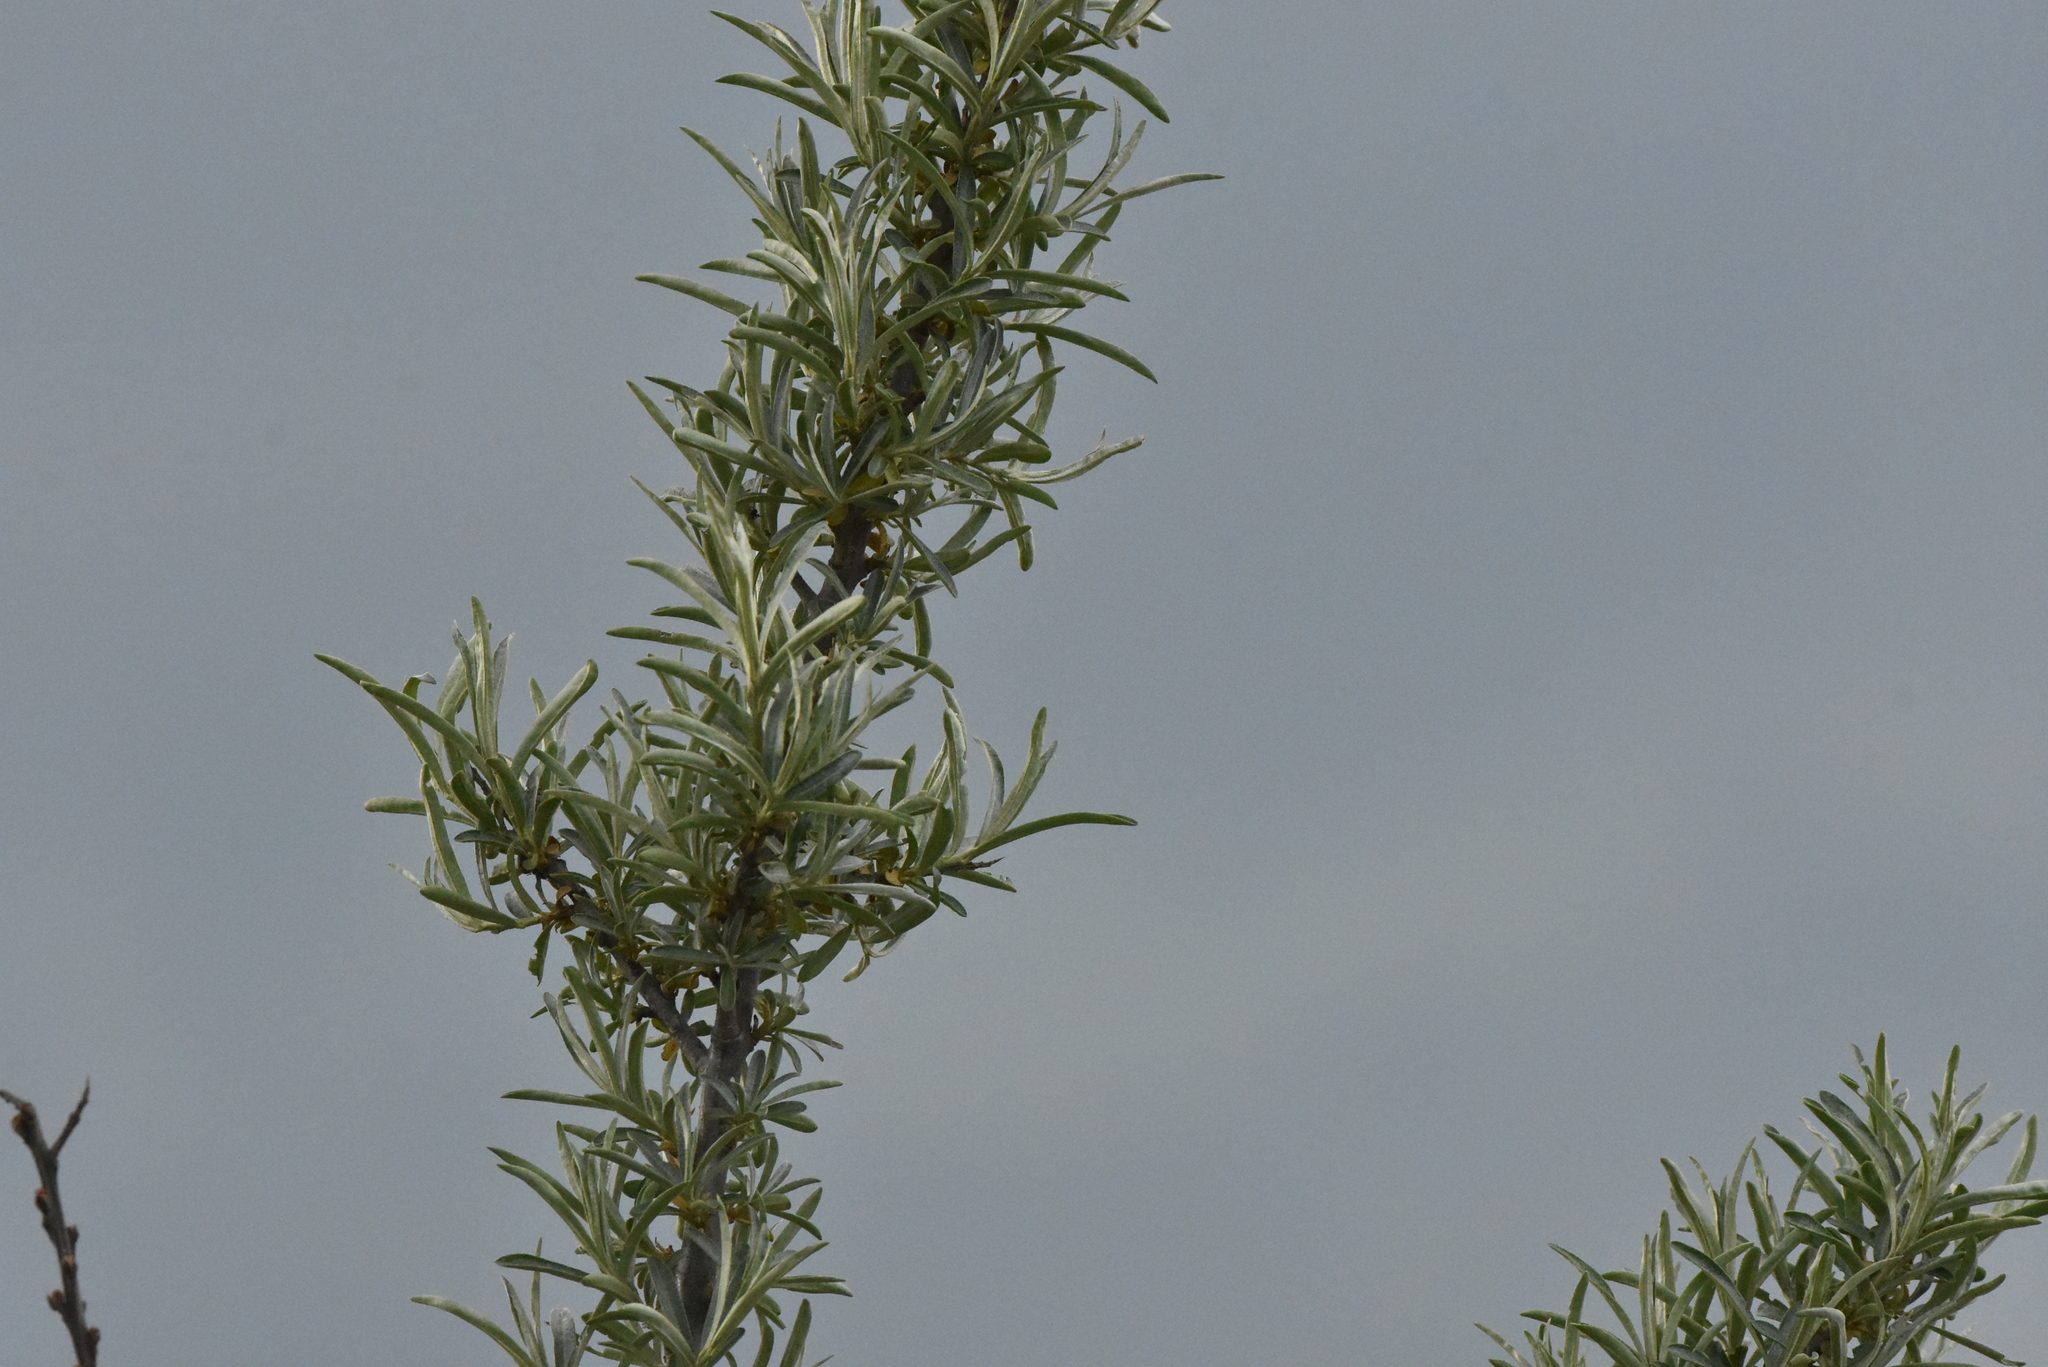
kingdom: Plantae
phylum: Tracheophyta
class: Magnoliopsida
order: Rosales
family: Elaeagnaceae
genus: Hippophae
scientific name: Hippophae rhamnoides
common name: Sea-buckthorn
